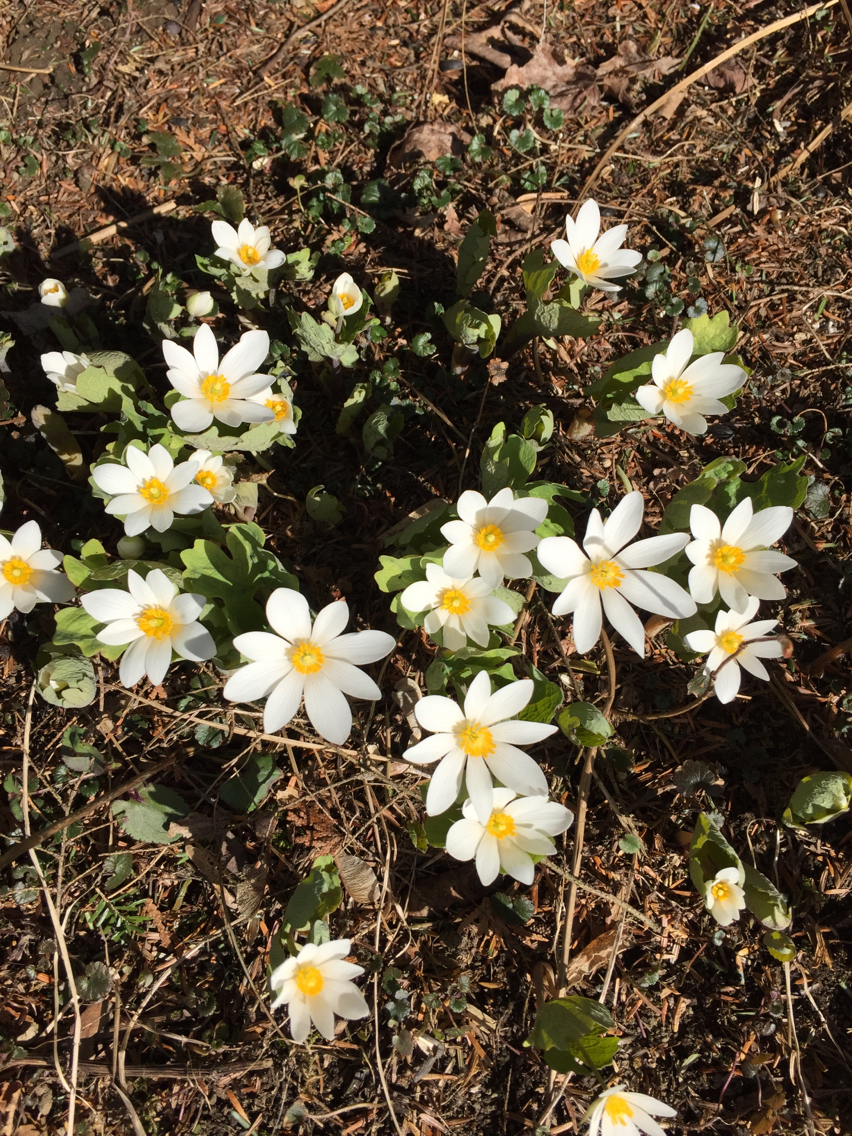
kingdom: Plantae
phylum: Tracheophyta
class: Magnoliopsida
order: Ranunculales
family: Papaveraceae
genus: Sanguinaria
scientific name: Sanguinaria canadensis
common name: Bloodroot
